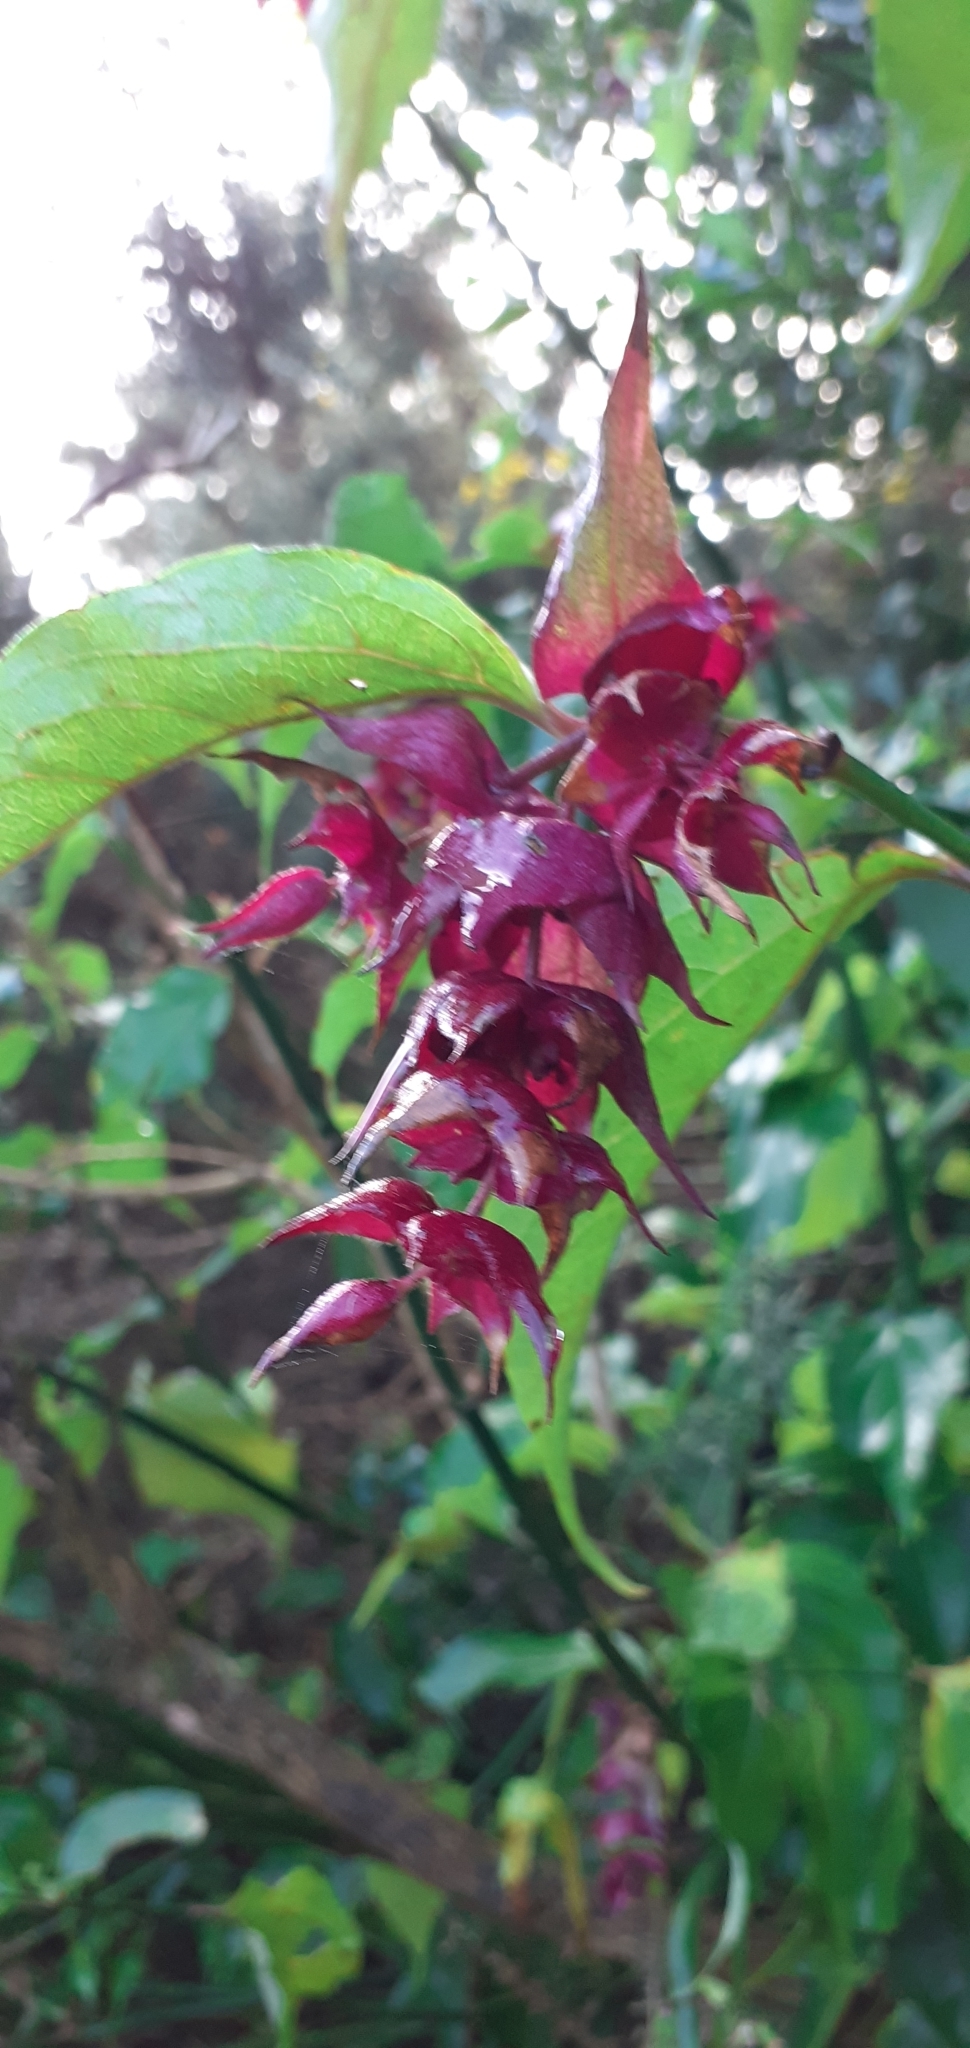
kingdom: Plantae
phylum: Tracheophyta
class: Magnoliopsida
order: Dipsacales
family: Caprifoliaceae
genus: Leycesteria
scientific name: Leycesteria formosa
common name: Himalayan honeysuckle
